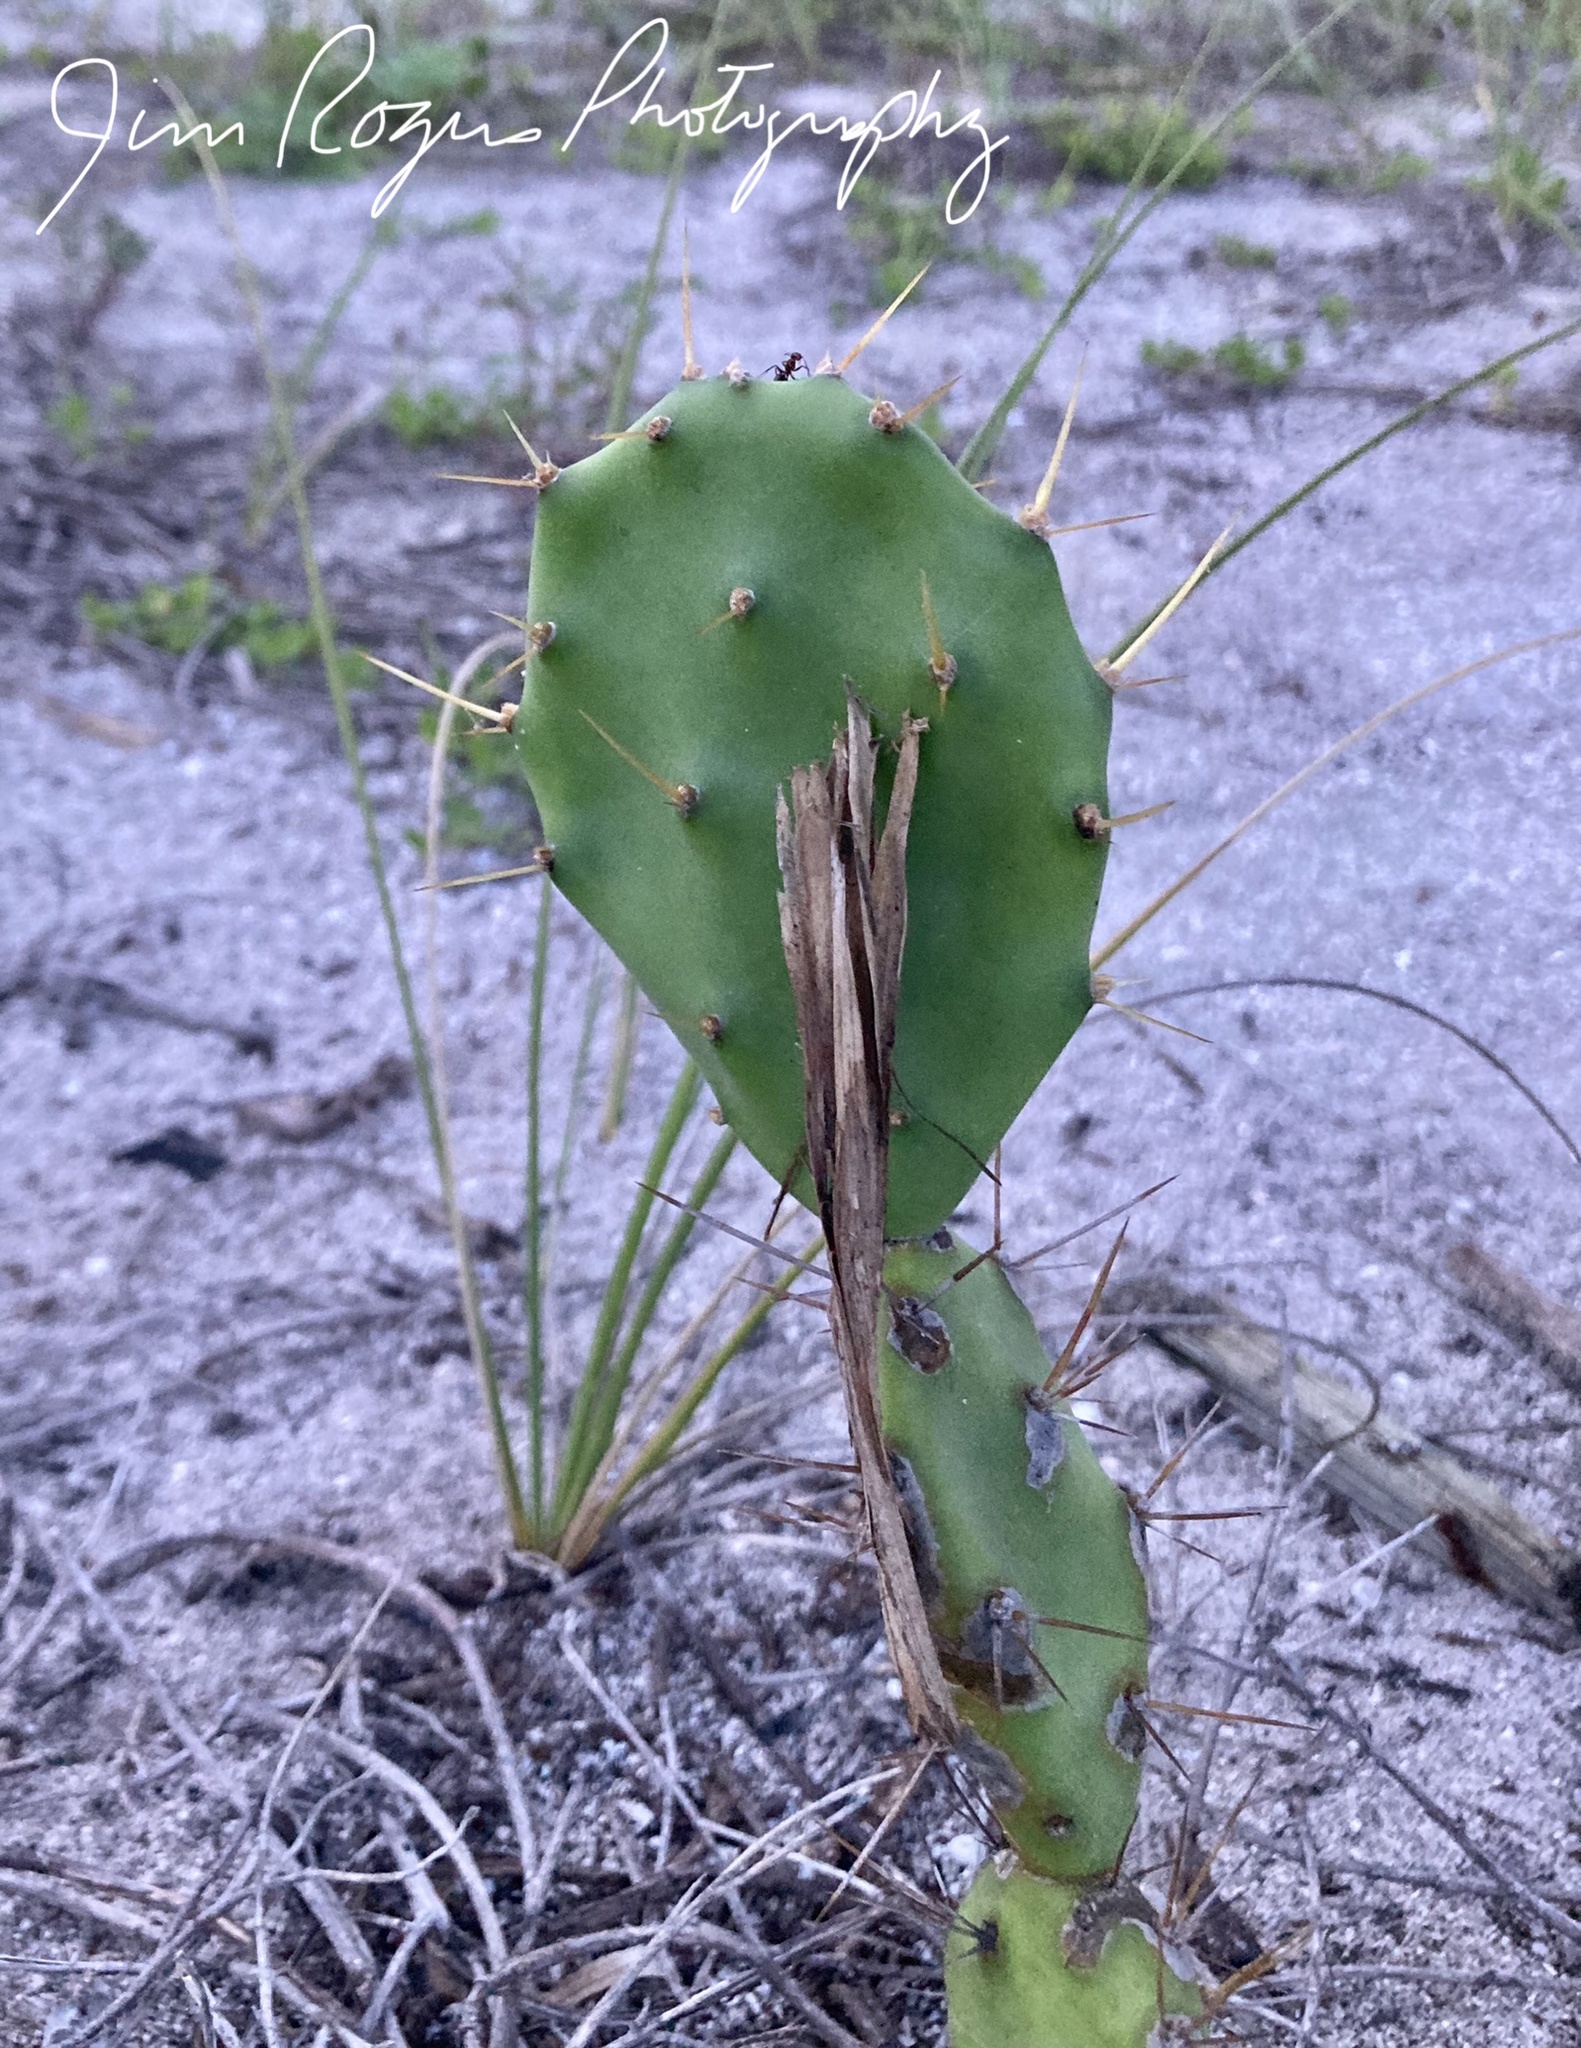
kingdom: Plantae
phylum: Tracheophyta
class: Magnoliopsida
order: Caryophyllales
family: Cactaceae
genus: Opuntia
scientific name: Opuntia dillenii
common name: Sour prickle
